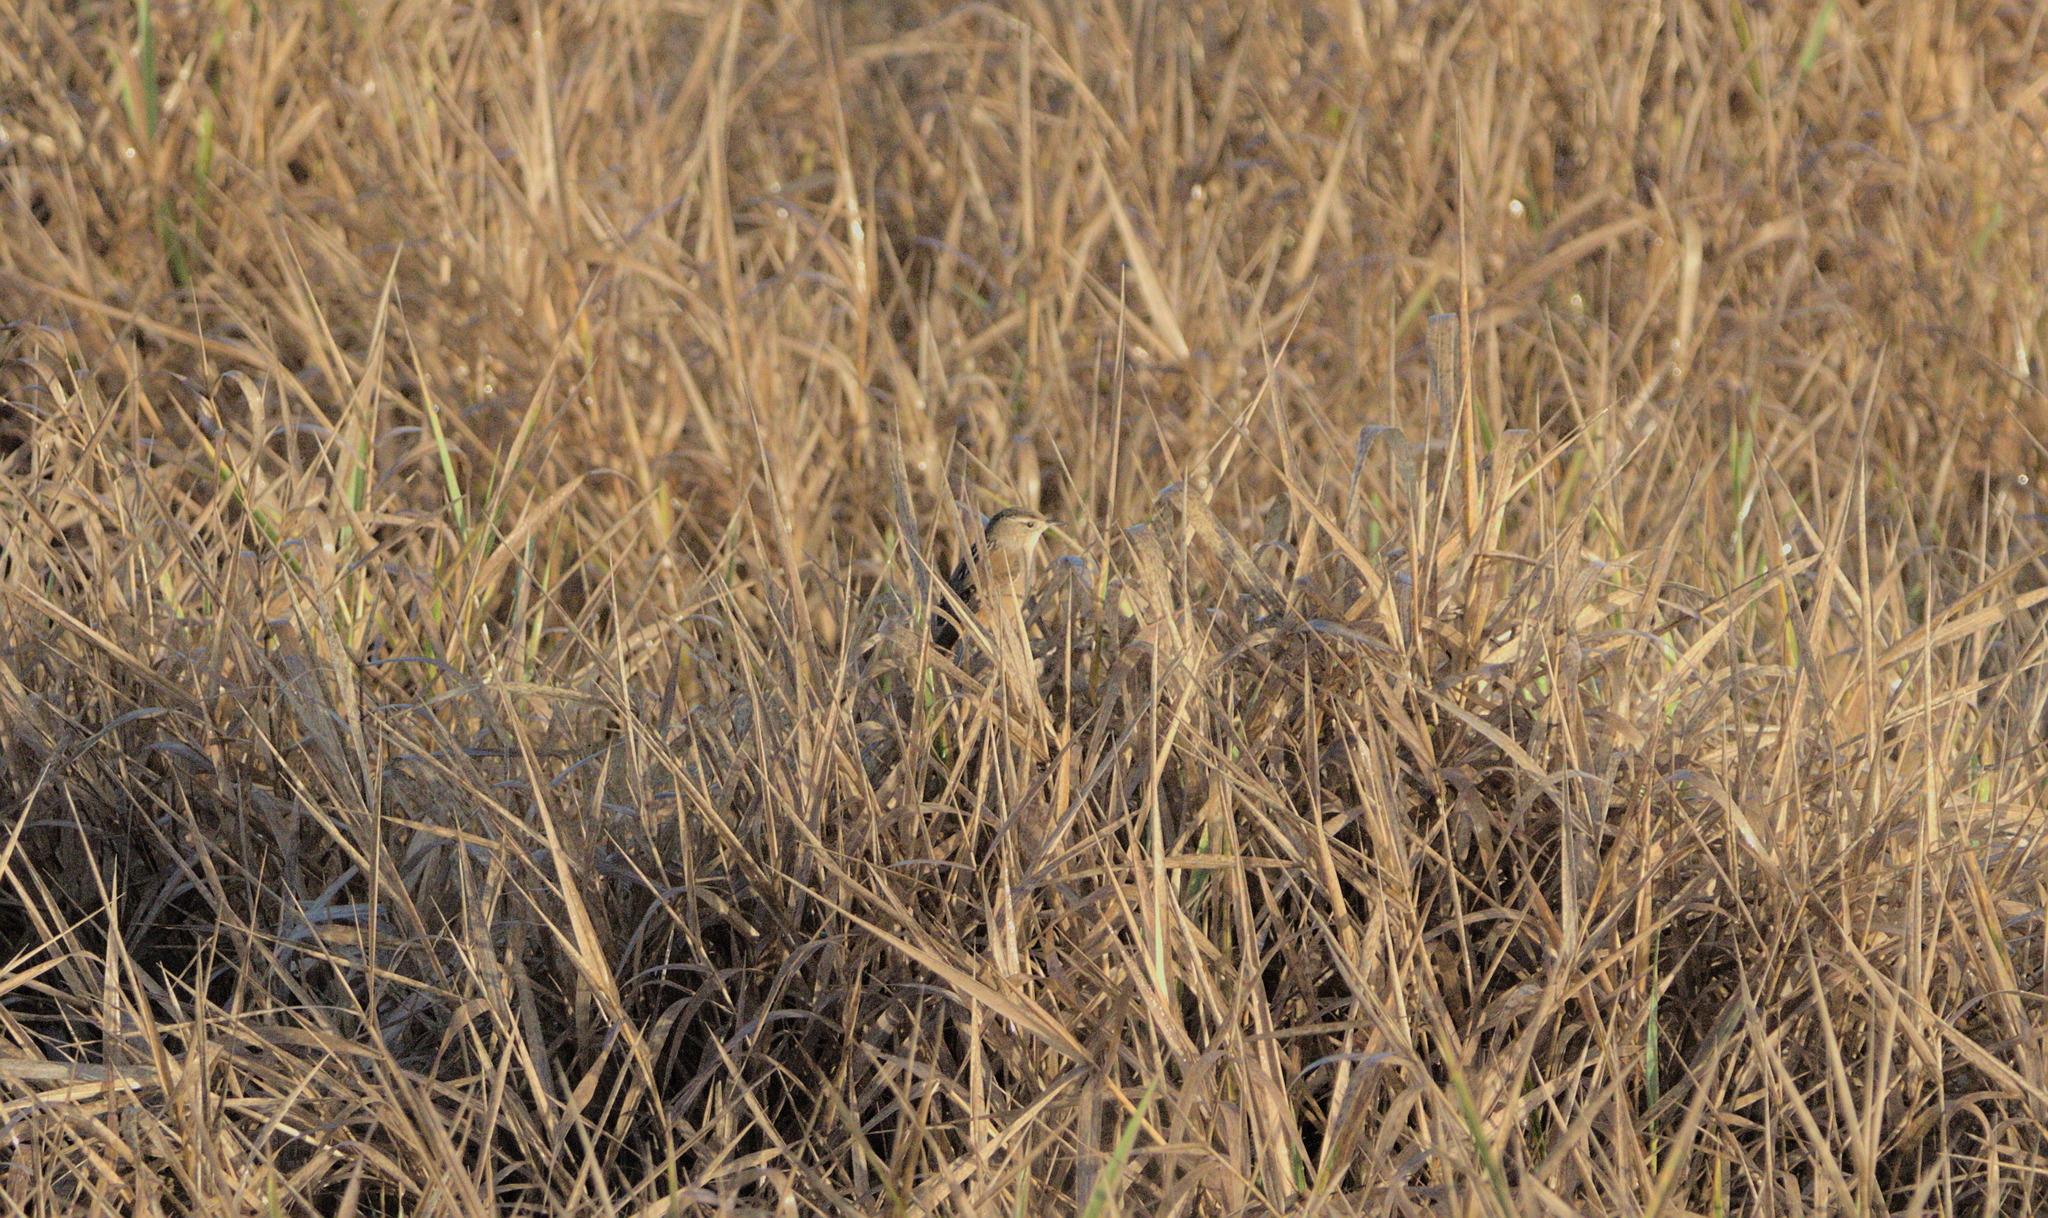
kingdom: Animalia
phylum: Chordata
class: Aves
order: Passeriformes
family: Troglodytidae
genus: Cistothorus
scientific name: Cistothorus palustris
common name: Marsh wren
